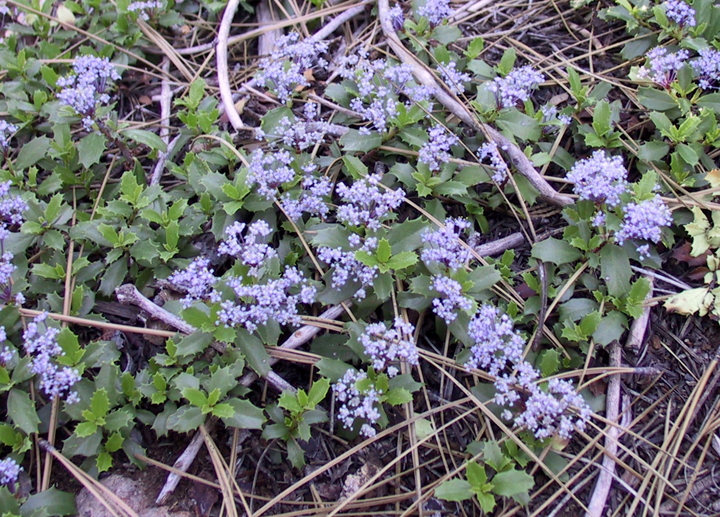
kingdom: Plantae
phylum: Tracheophyta
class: Magnoliopsida
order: Rosales
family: Rhamnaceae
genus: Ceanothus
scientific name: Ceanothus prostratus
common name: Mahala-mat
